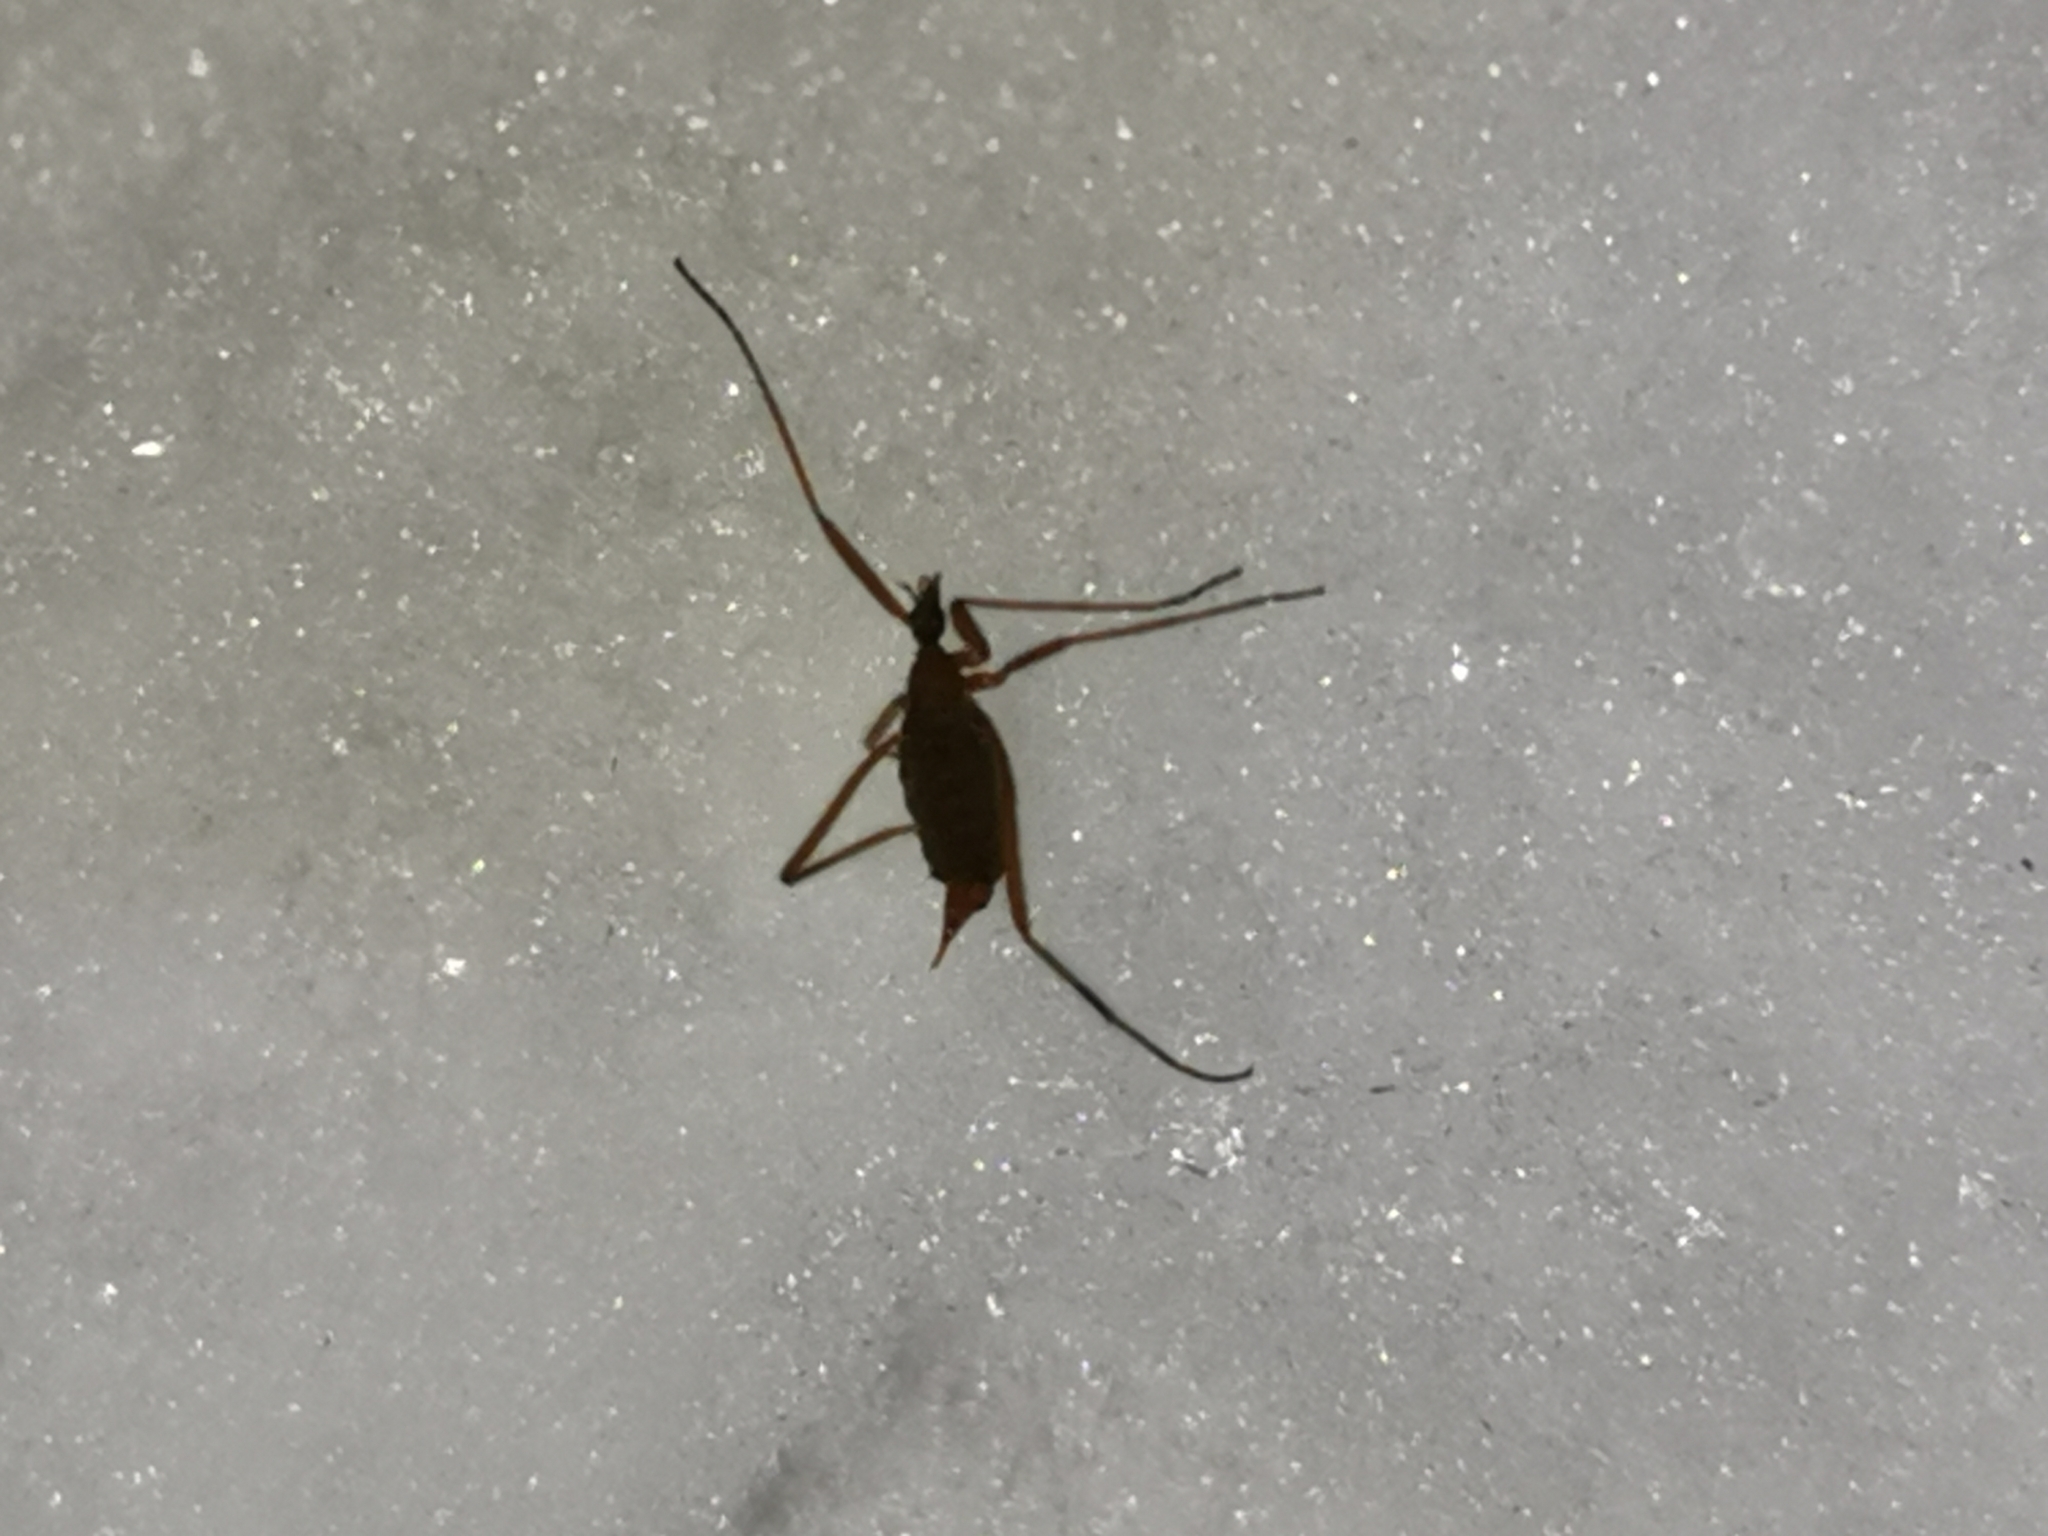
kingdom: Animalia
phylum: Arthropoda
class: Insecta
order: Diptera
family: Limoniidae
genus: Chionea
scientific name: Chionea lutescens
